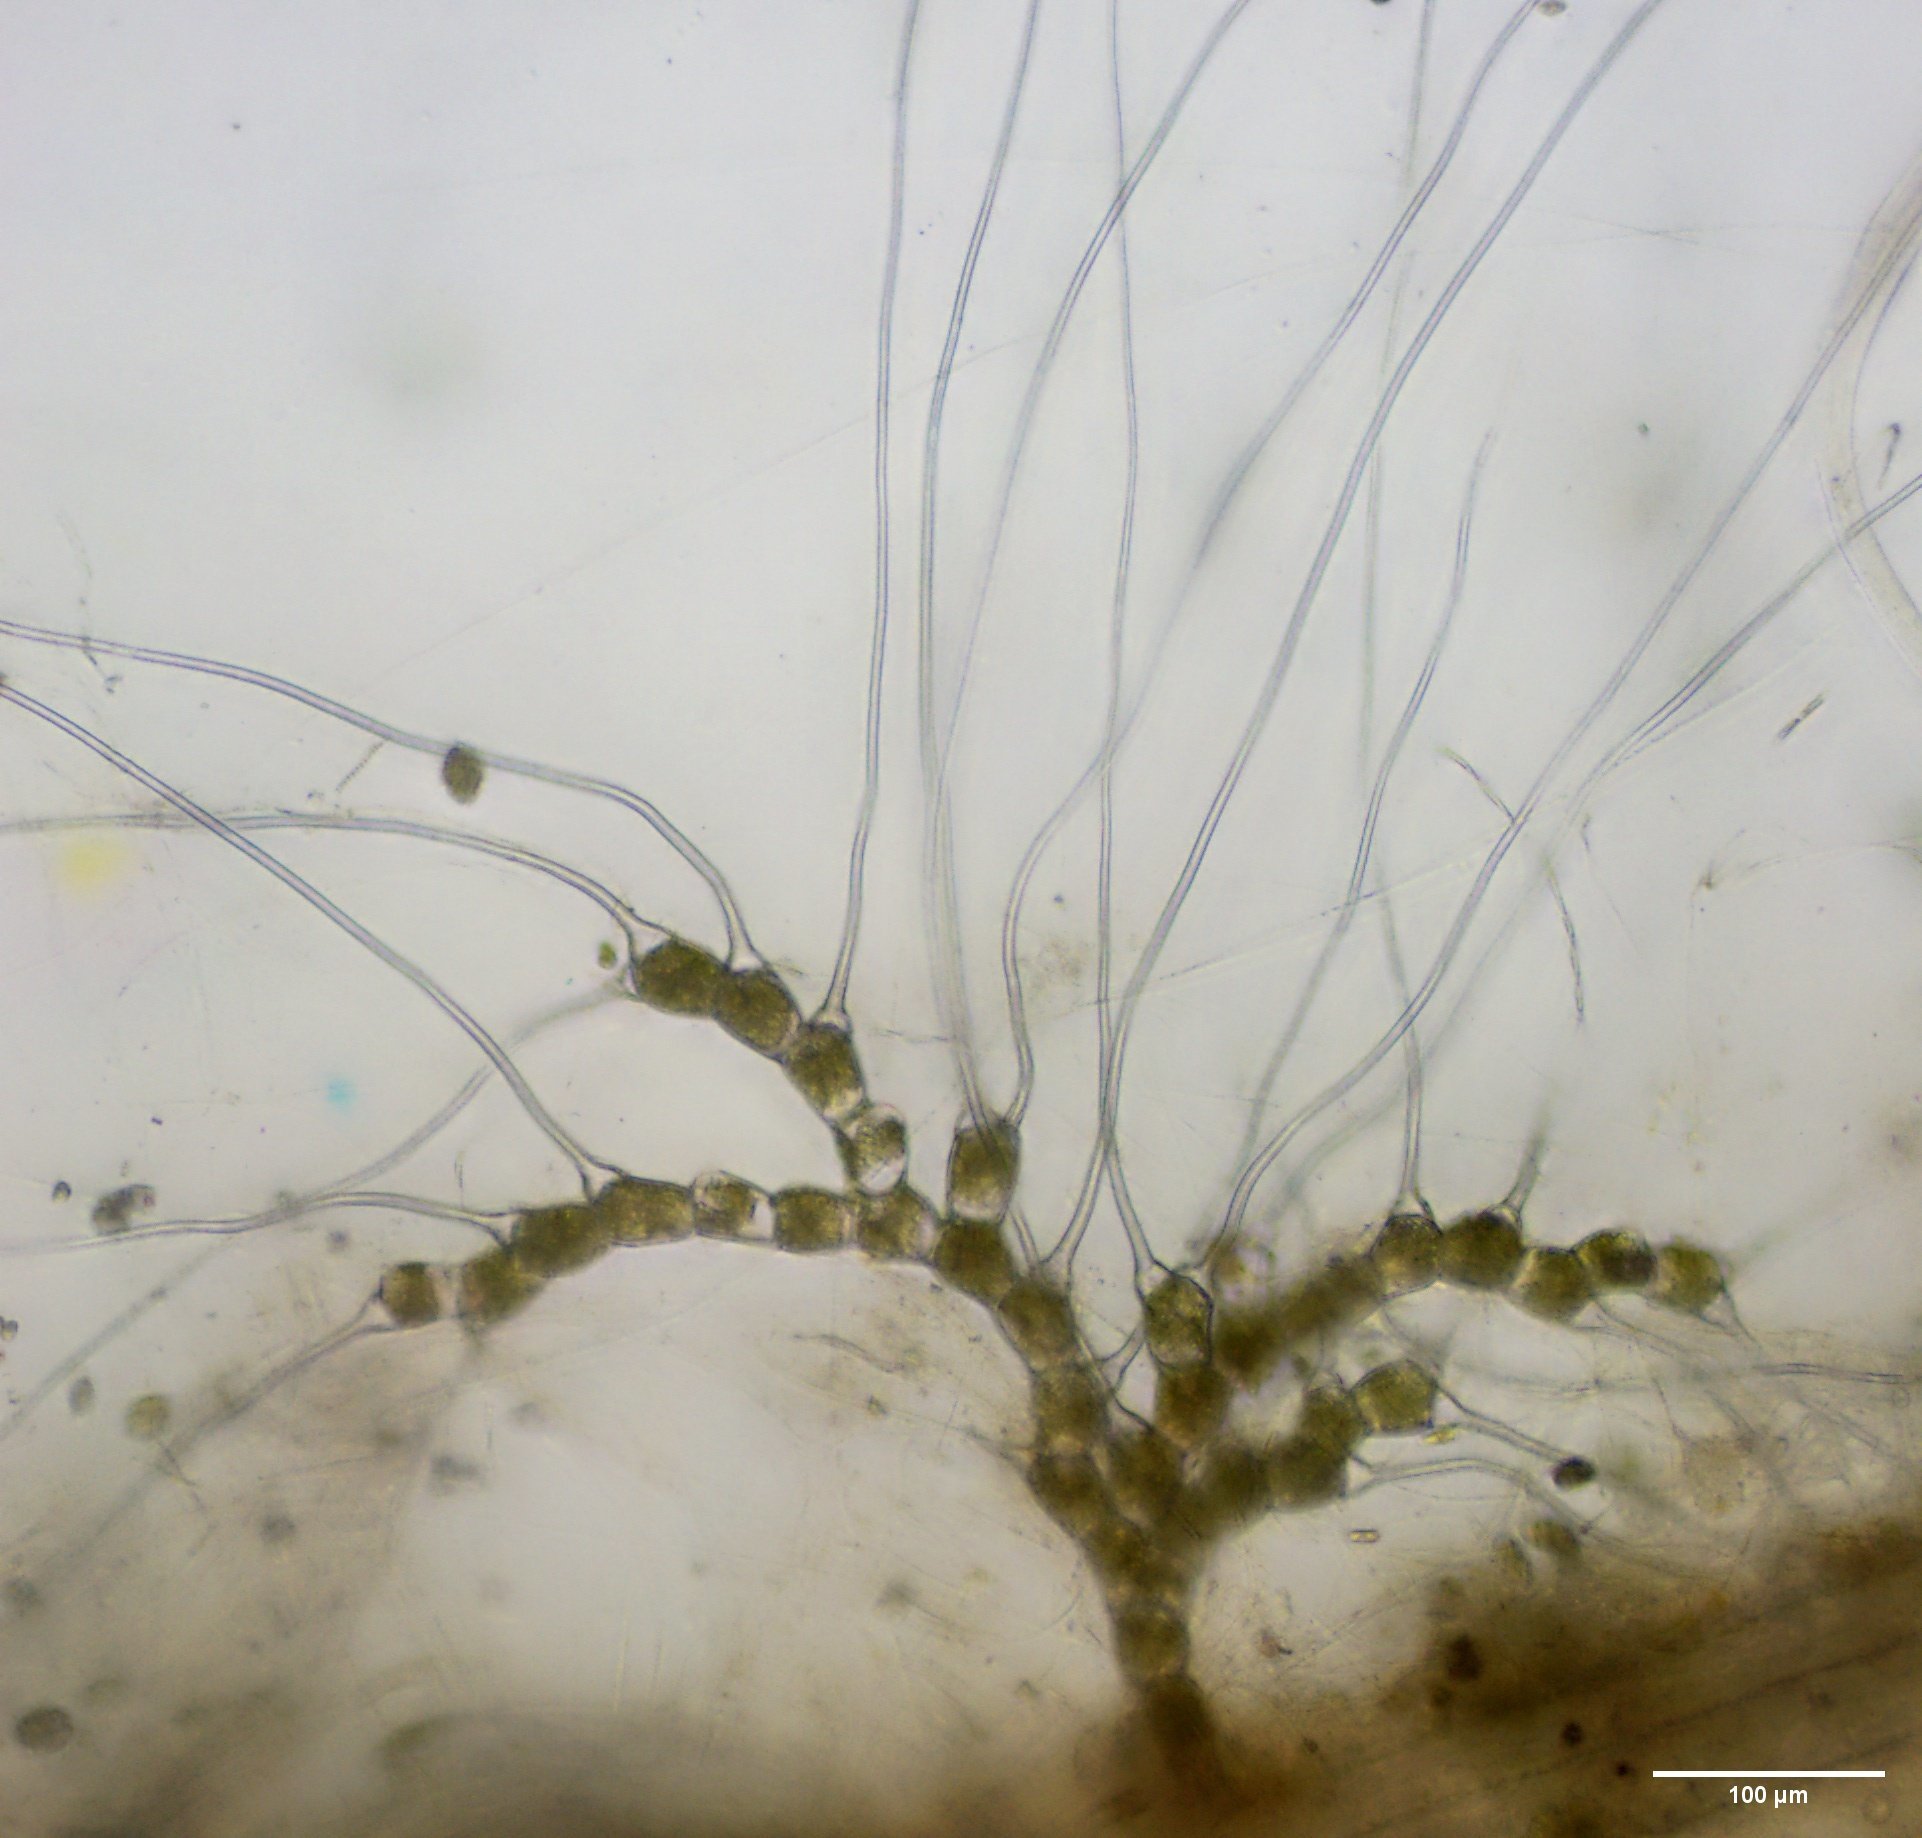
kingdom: Plantae
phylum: Chlorophyta
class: Chlorophyceae
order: Oedogoniales
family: Oedogoniaceae
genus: Bulbochaete
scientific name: Bulbochaete
